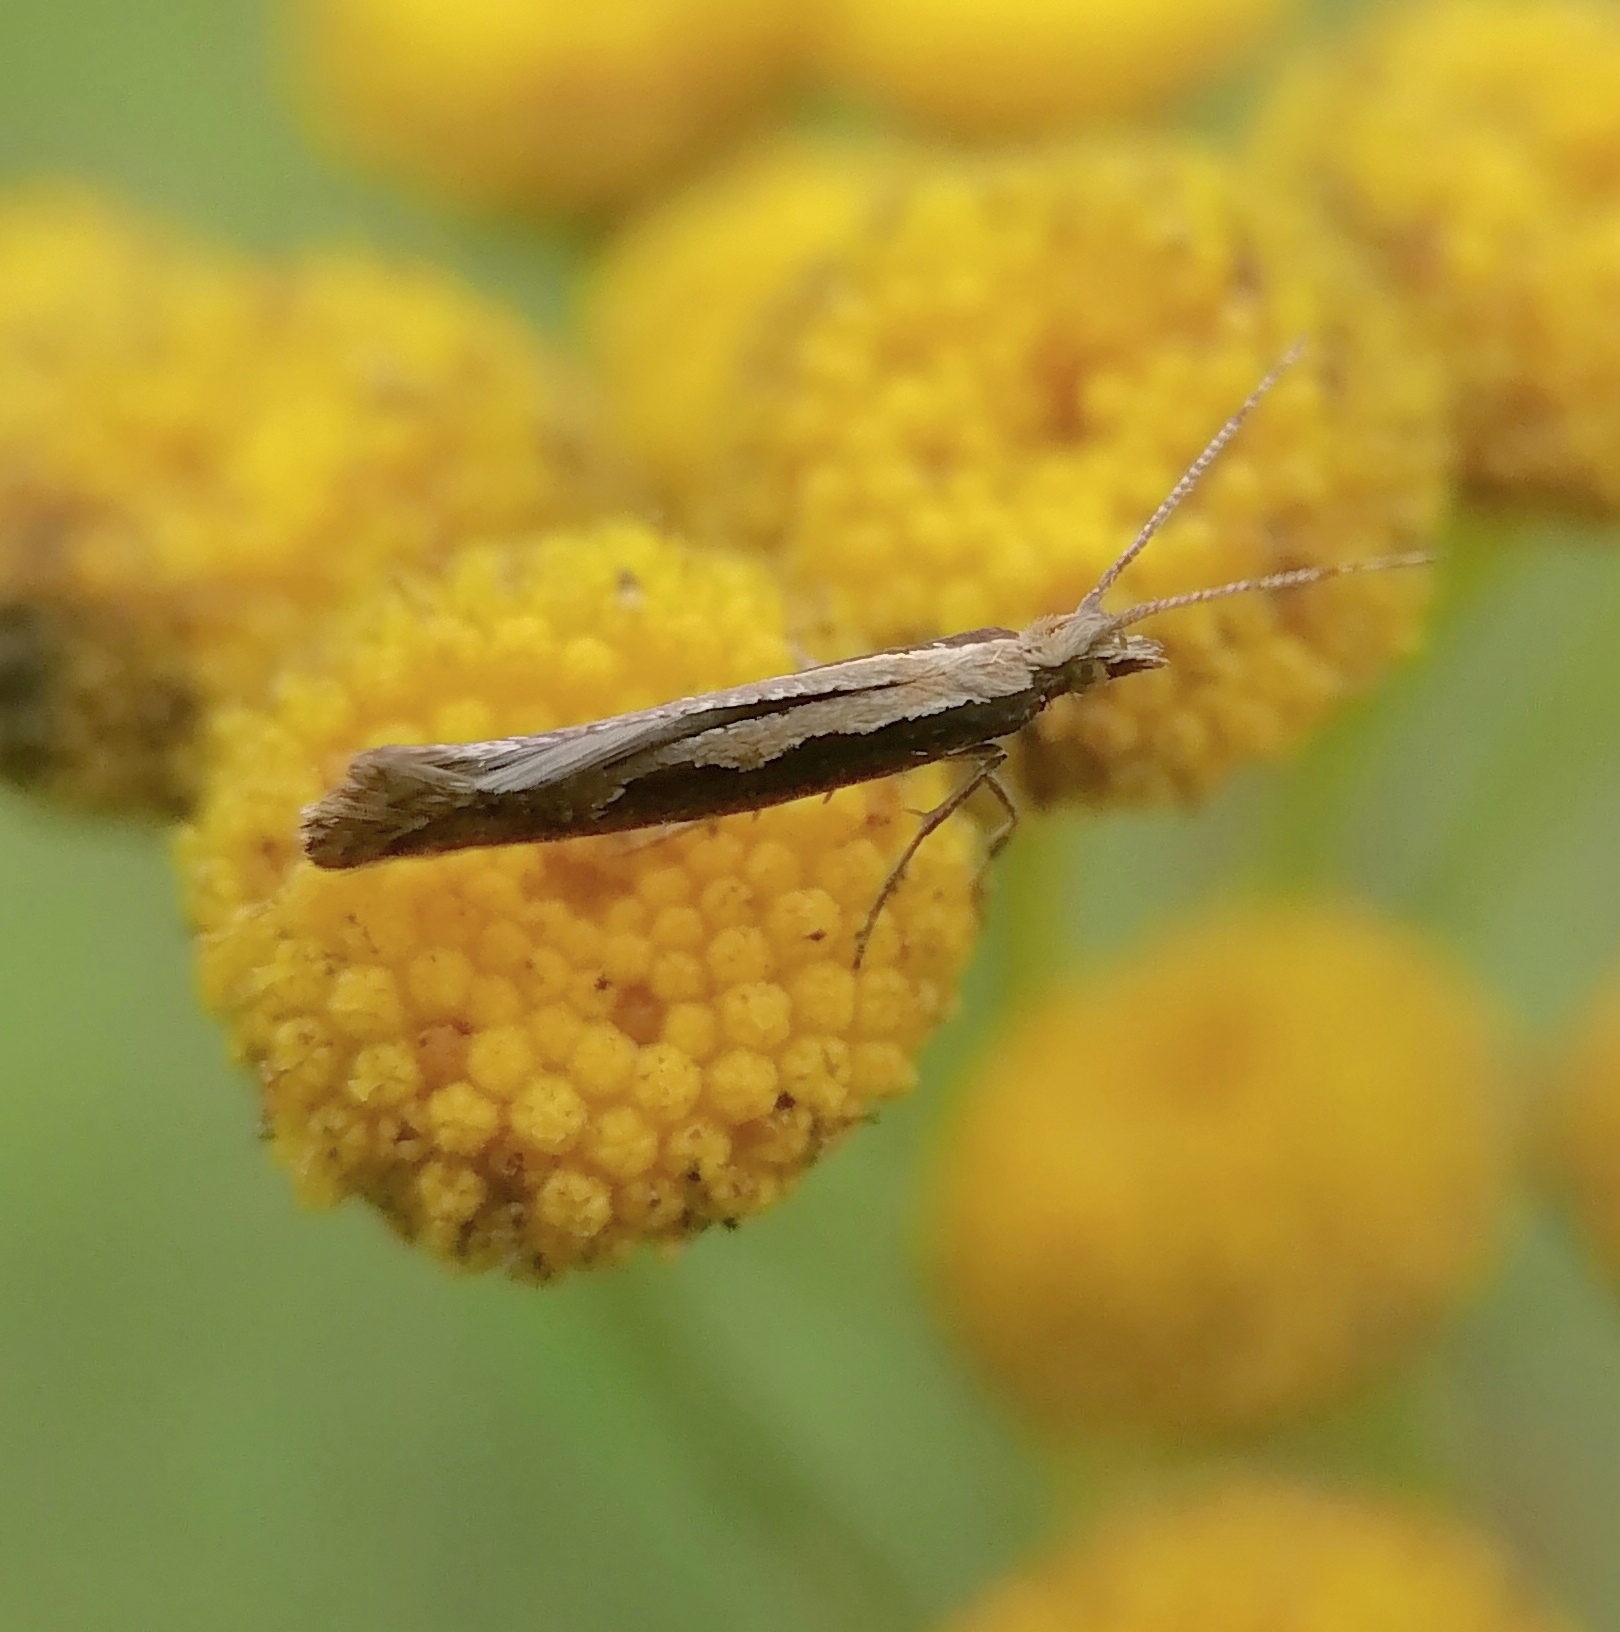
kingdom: Animalia
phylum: Arthropoda
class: Insecta
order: Lepidoptera
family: Plutellidae
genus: Plutella
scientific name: Plutella xylostella
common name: Diamond-back moth
